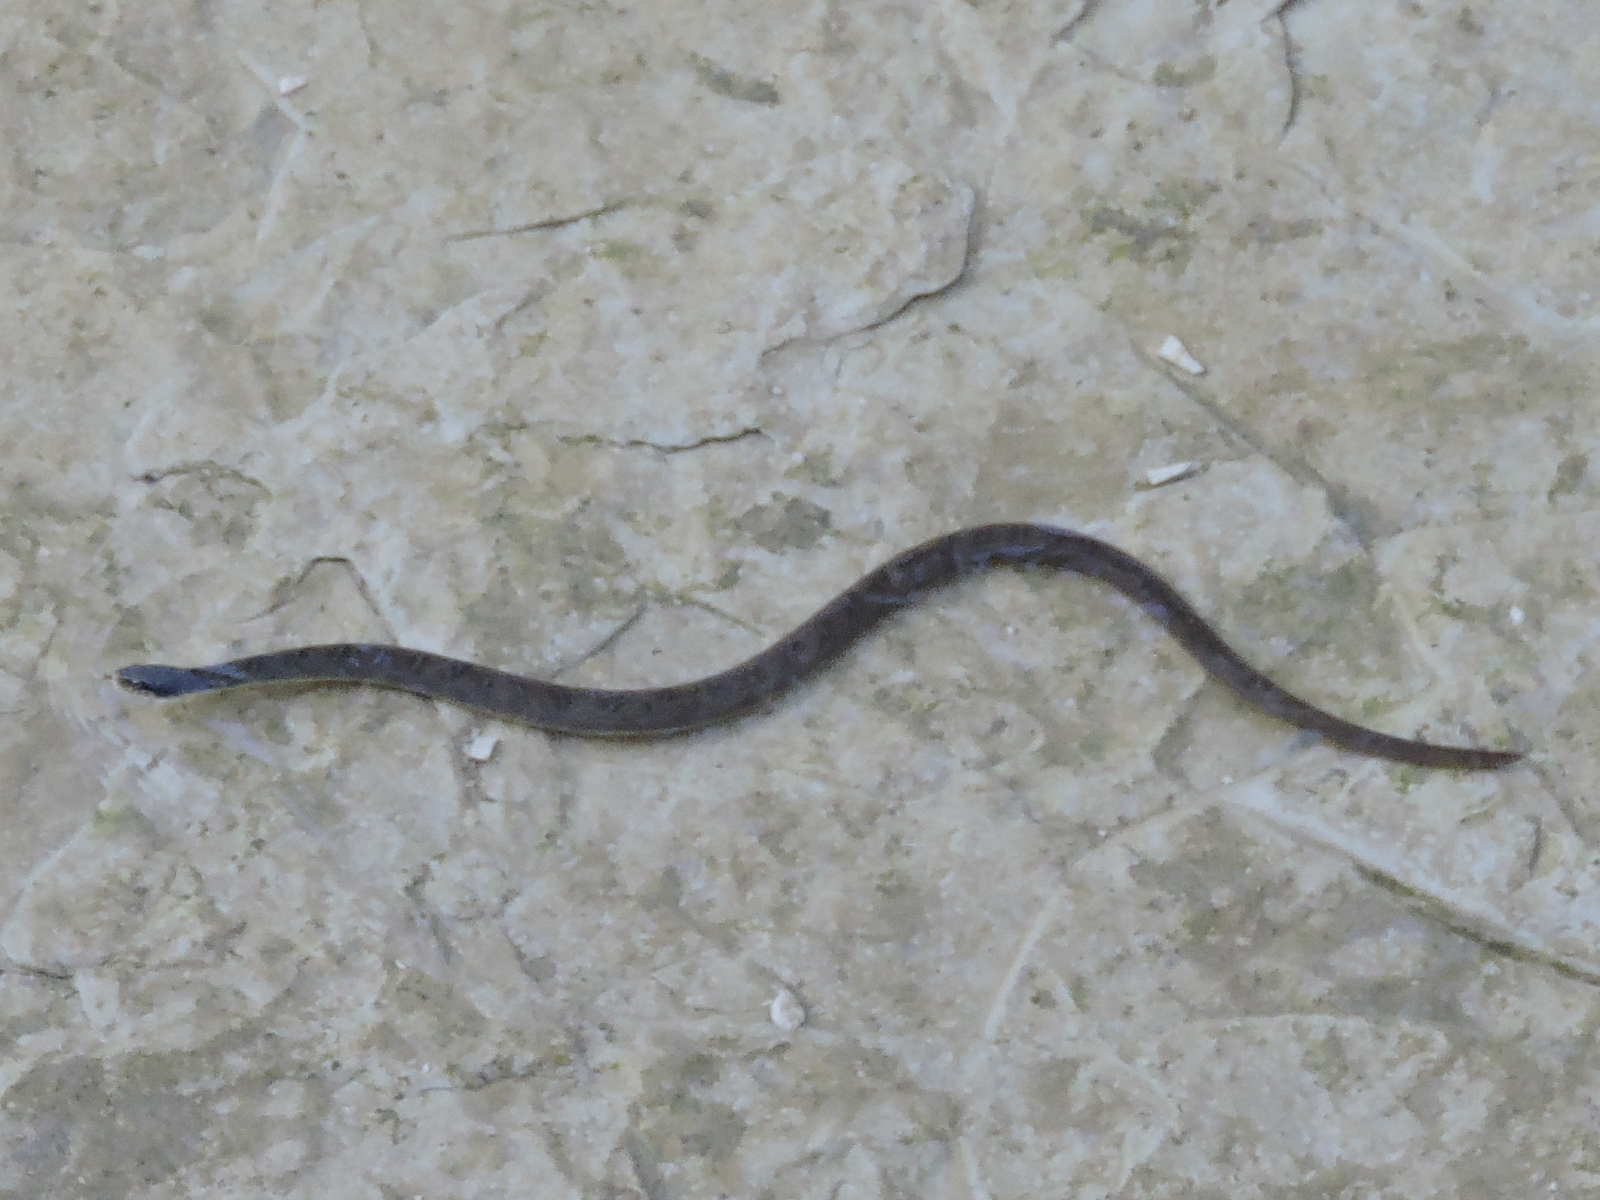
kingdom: Animalia
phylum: Chordata
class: Squamata
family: Colubridae
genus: Nerodia
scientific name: Nerodia erythrogaster
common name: Plainbelly water snake
